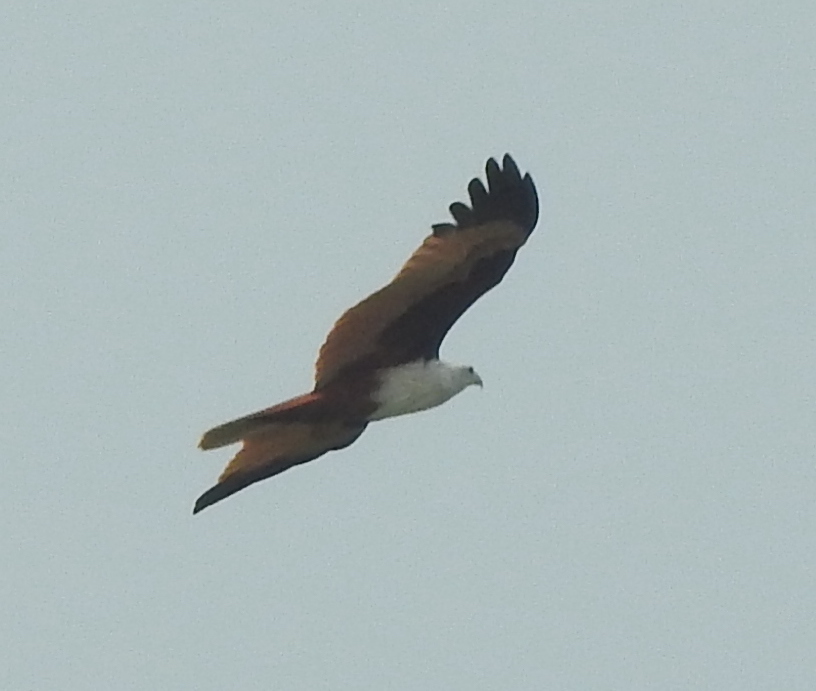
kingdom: Animalia
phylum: Chordata
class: Aves
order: Accipitriformes
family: Accipitridae
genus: Haliastur
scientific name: Haliastur indus
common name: Brahminy kite
